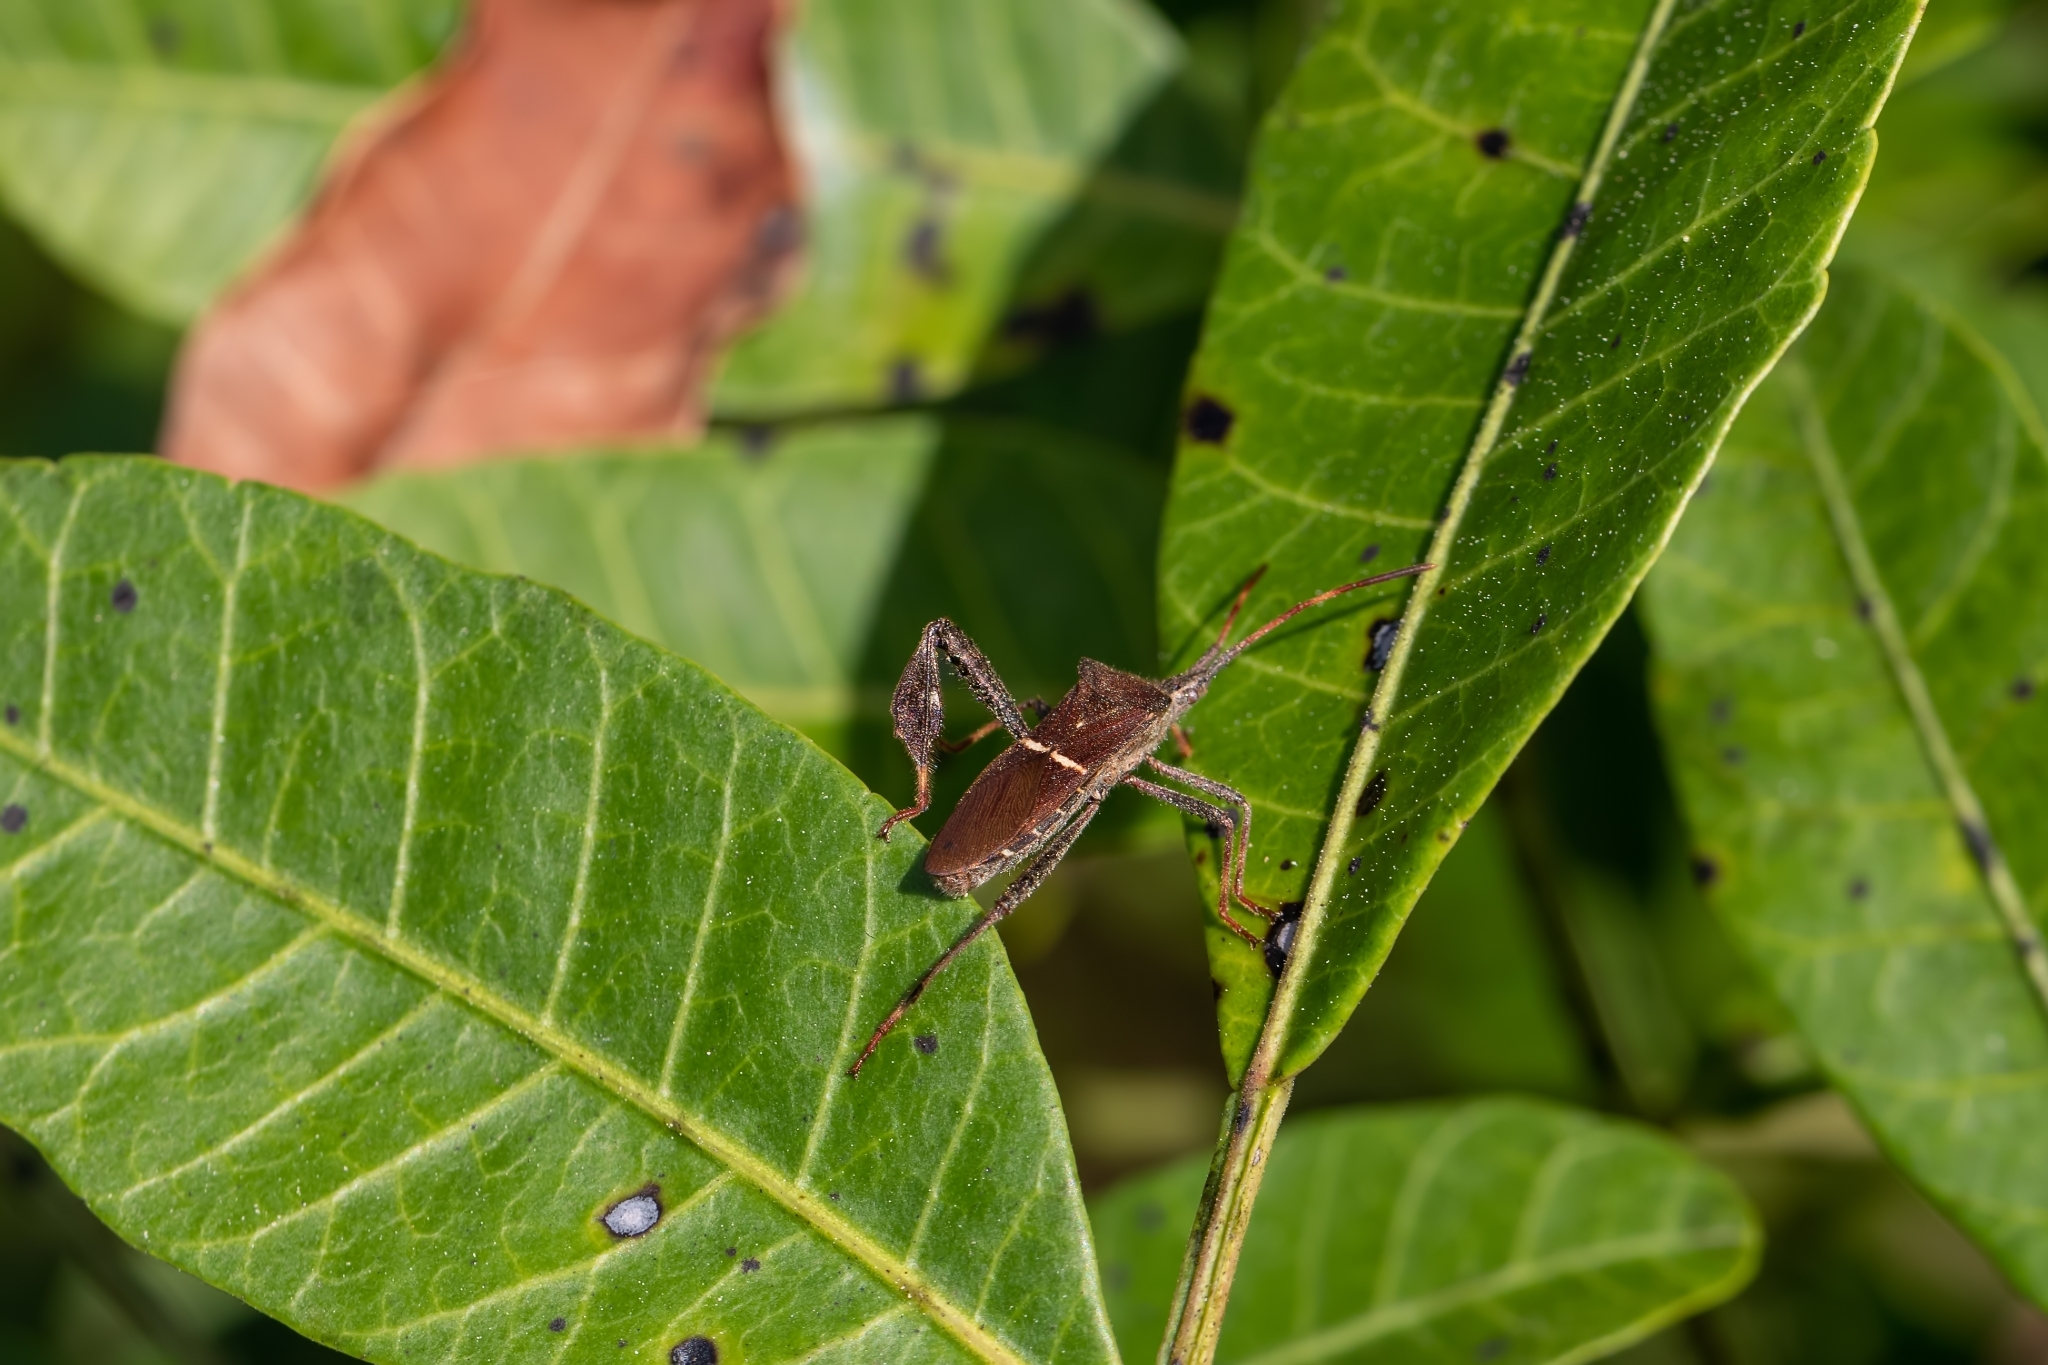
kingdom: Animalia
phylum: Arthropoda
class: Insecta
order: Hemiptera
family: Coreidae
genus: Leptoglossus
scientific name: Leptoglossus phyllopus
